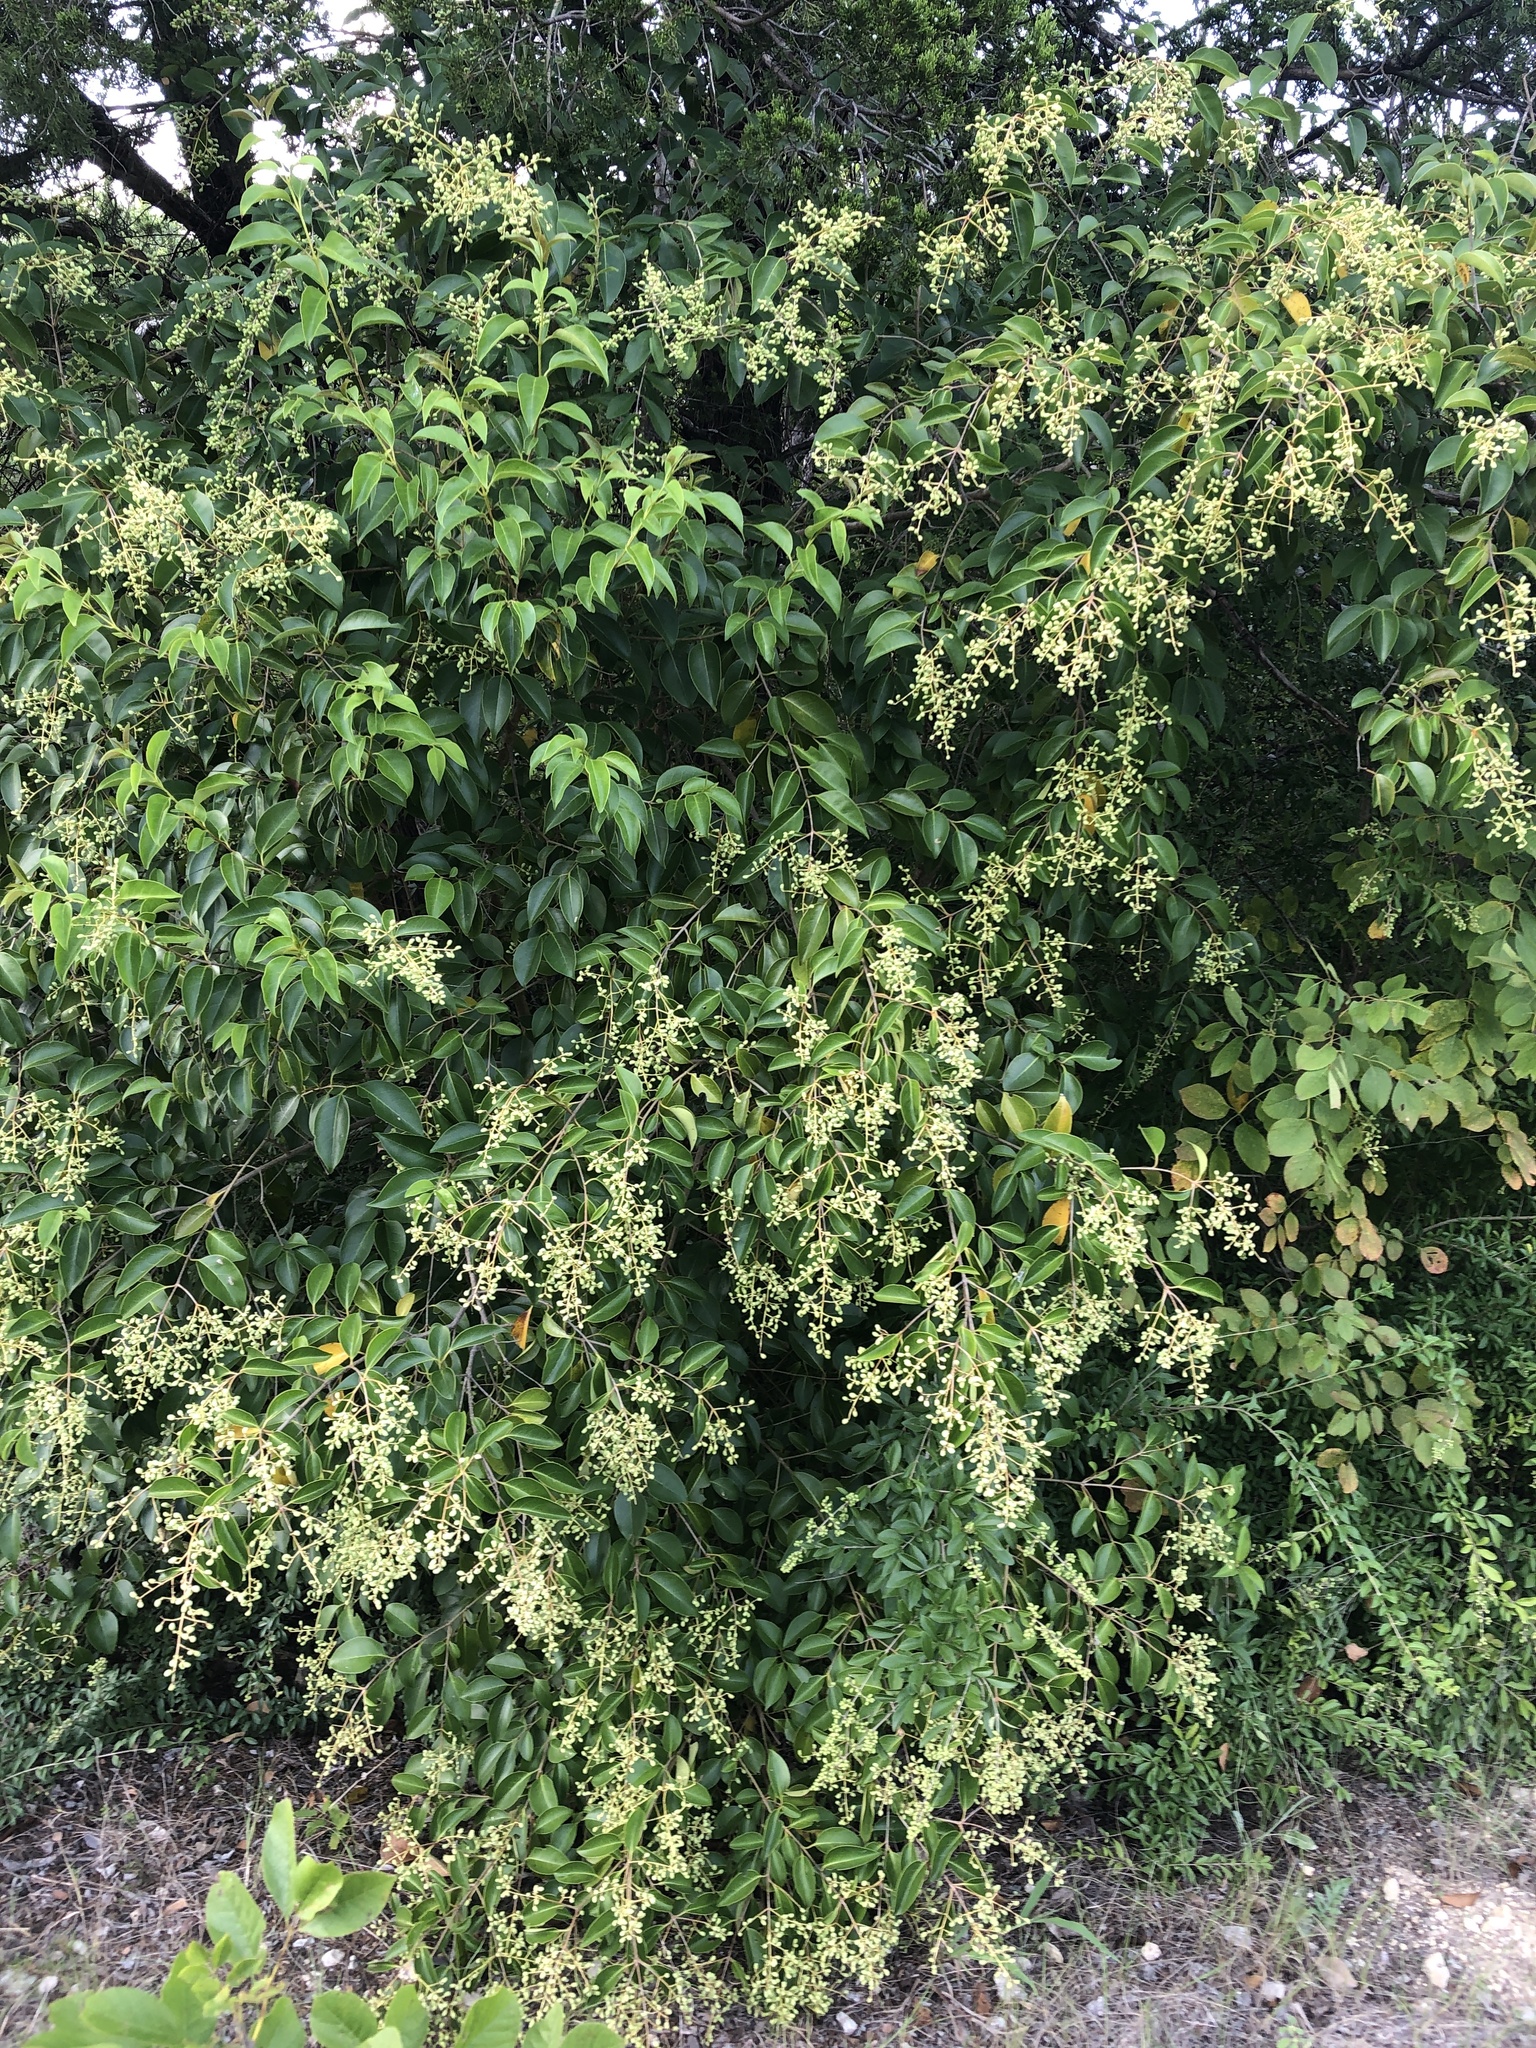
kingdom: Plantae
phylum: Tracheophyta
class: Magnoliopsida
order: Lamiales
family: Oleaceae
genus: Ligustrum
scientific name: Ligustrum lucidum
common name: Glossy privet
